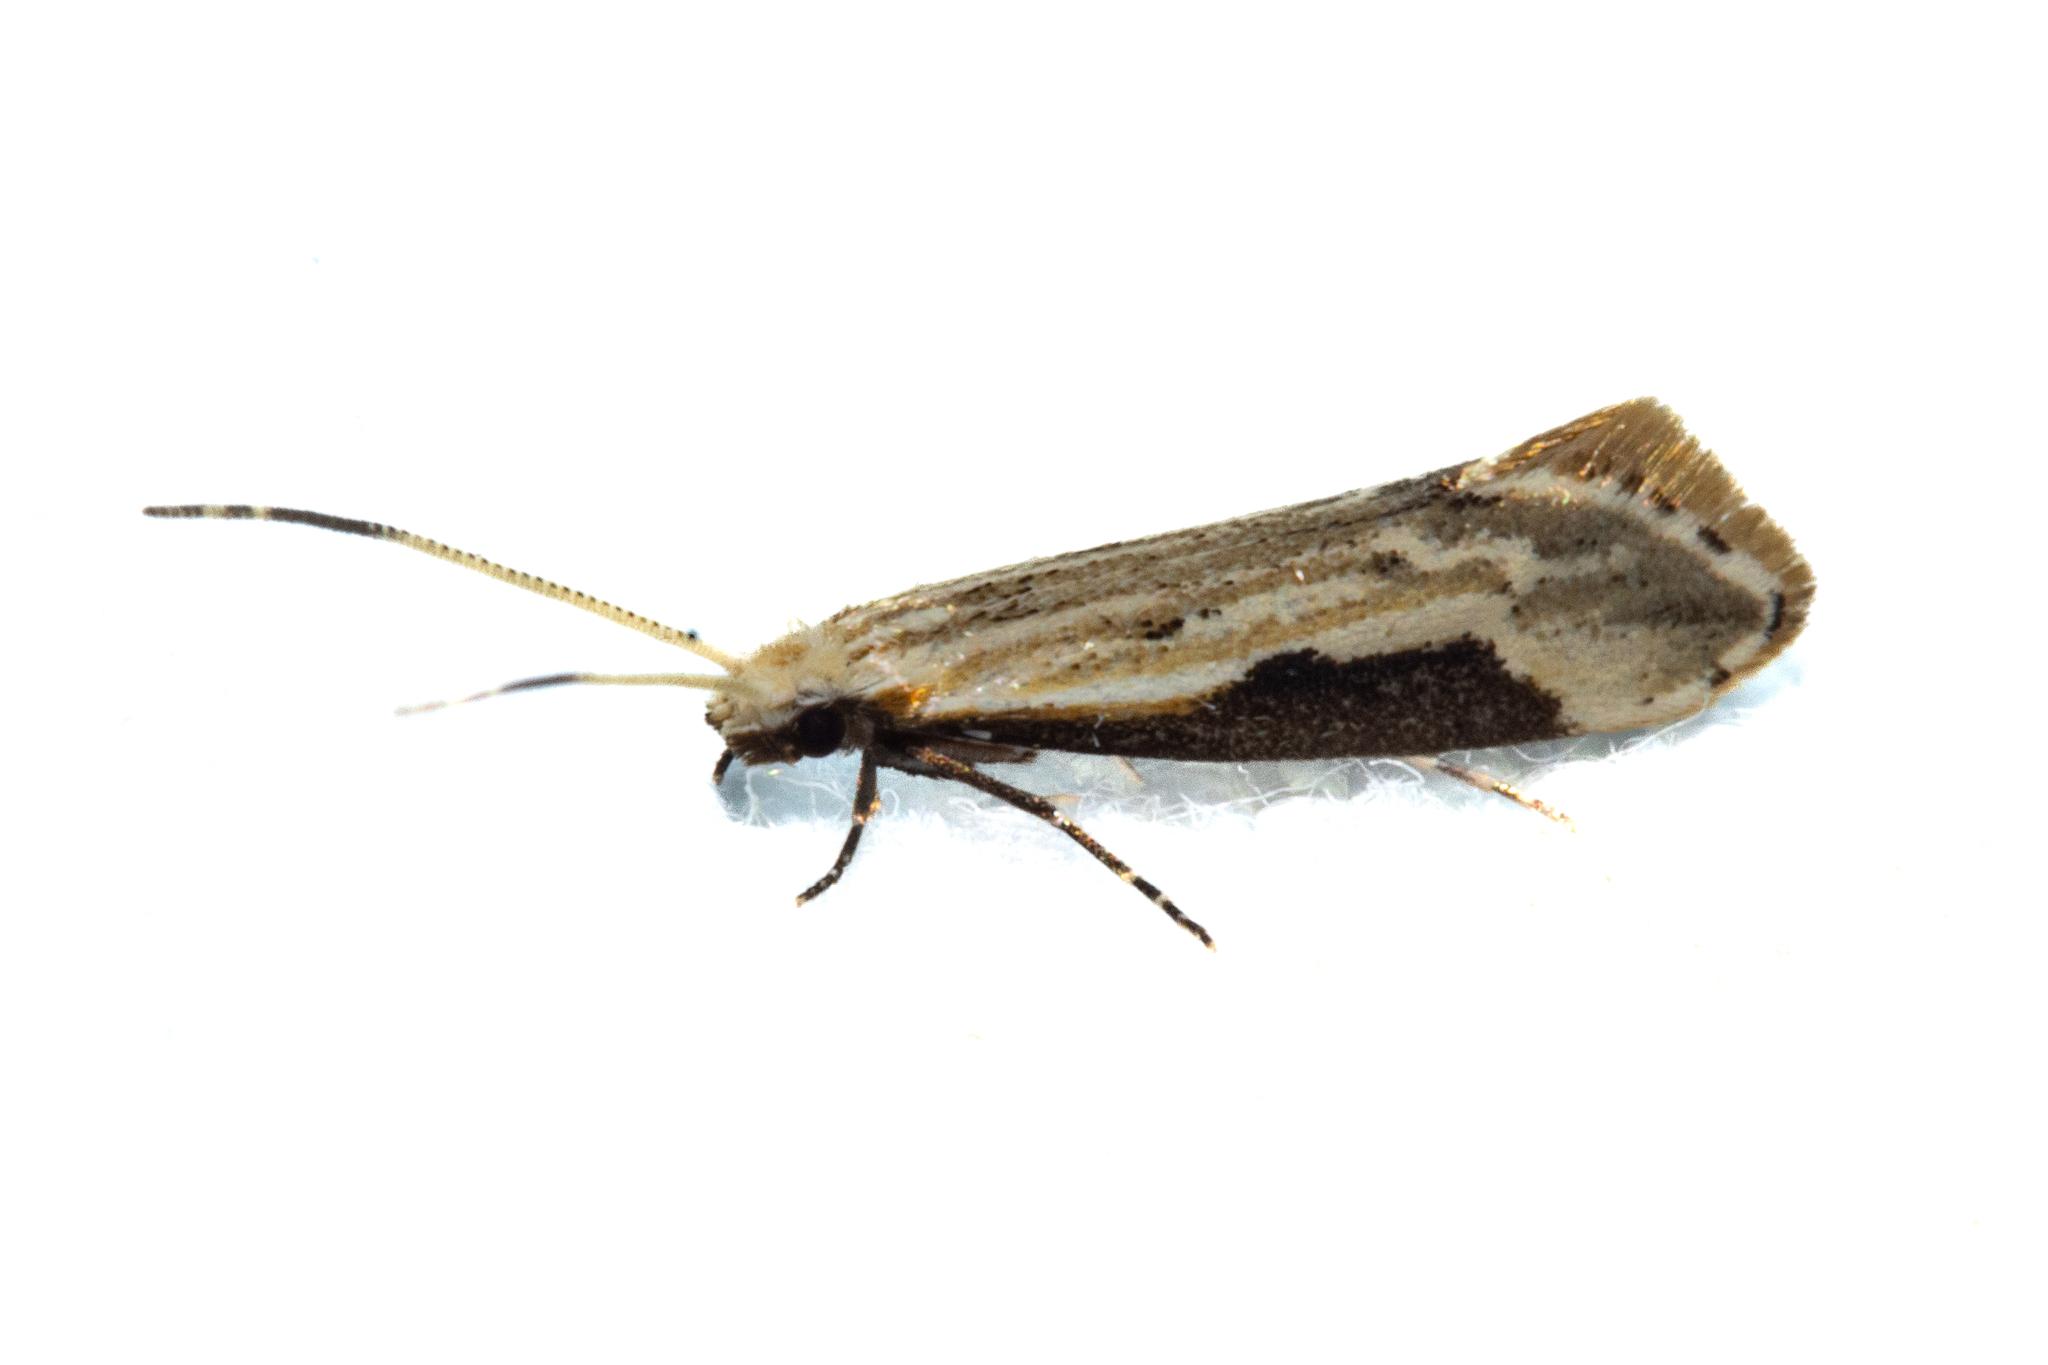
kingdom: Animalia
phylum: Arthropoda
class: Insecta
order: Lepidoptera
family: Tineidae
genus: Sagephora
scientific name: Sagephora phortegella
